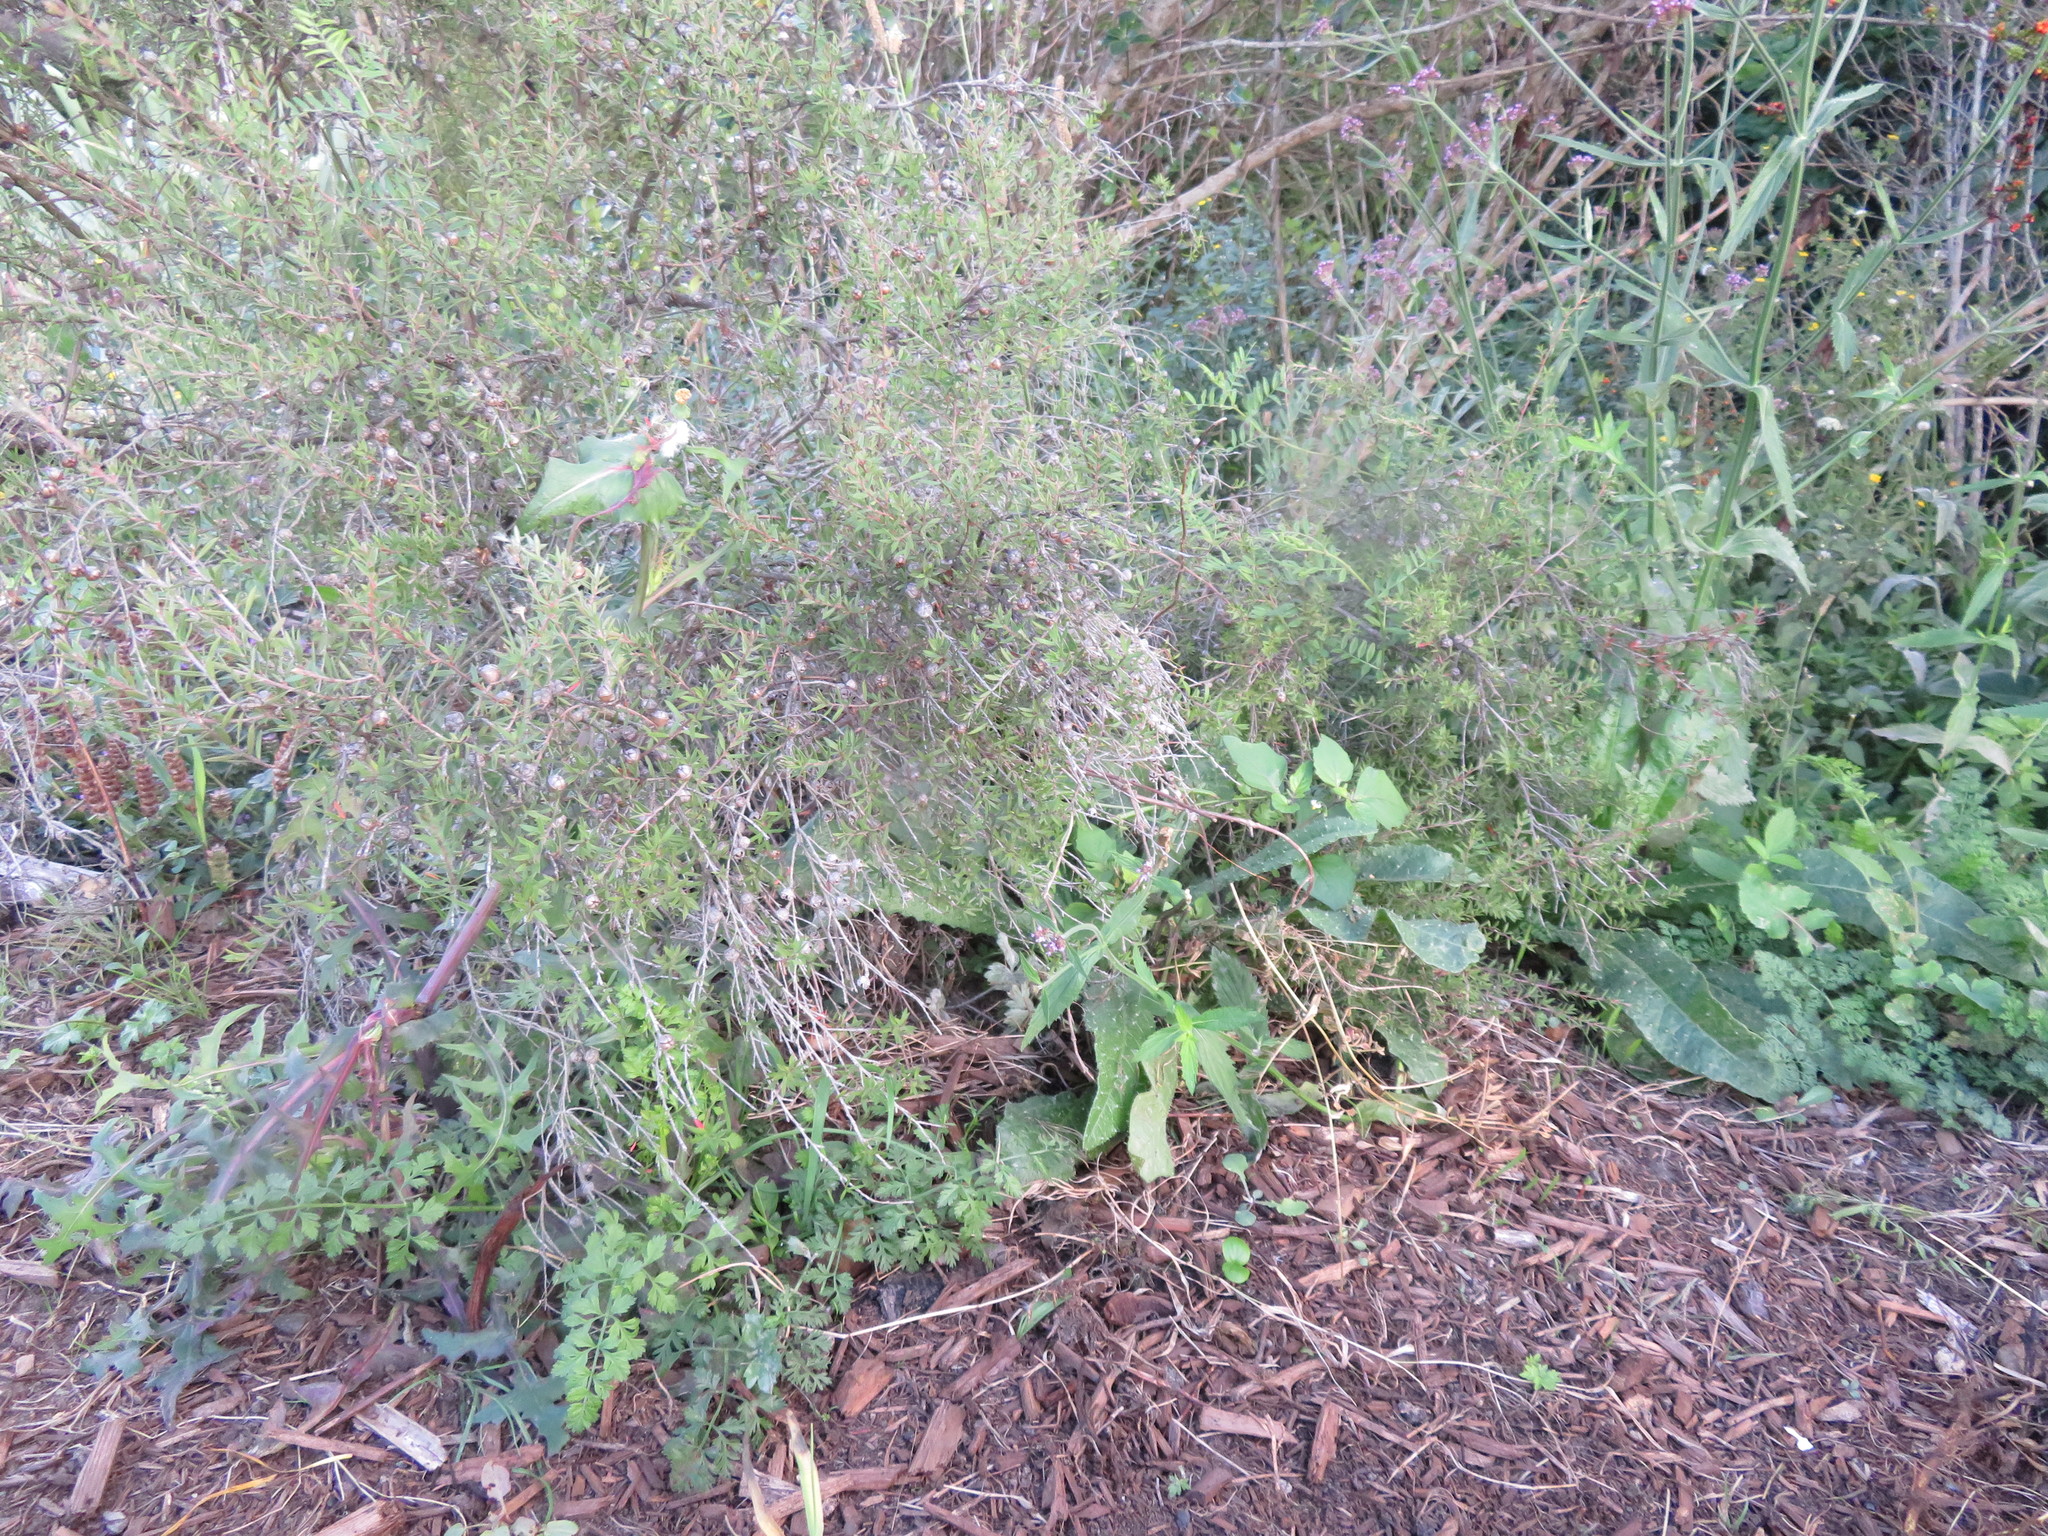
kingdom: Plantae
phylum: Tracheophyta
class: Magnoliopsida
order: Caryophyllales
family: Polygonaceae
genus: Rumex
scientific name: Rumex obtusifolius
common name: Bitter dock
